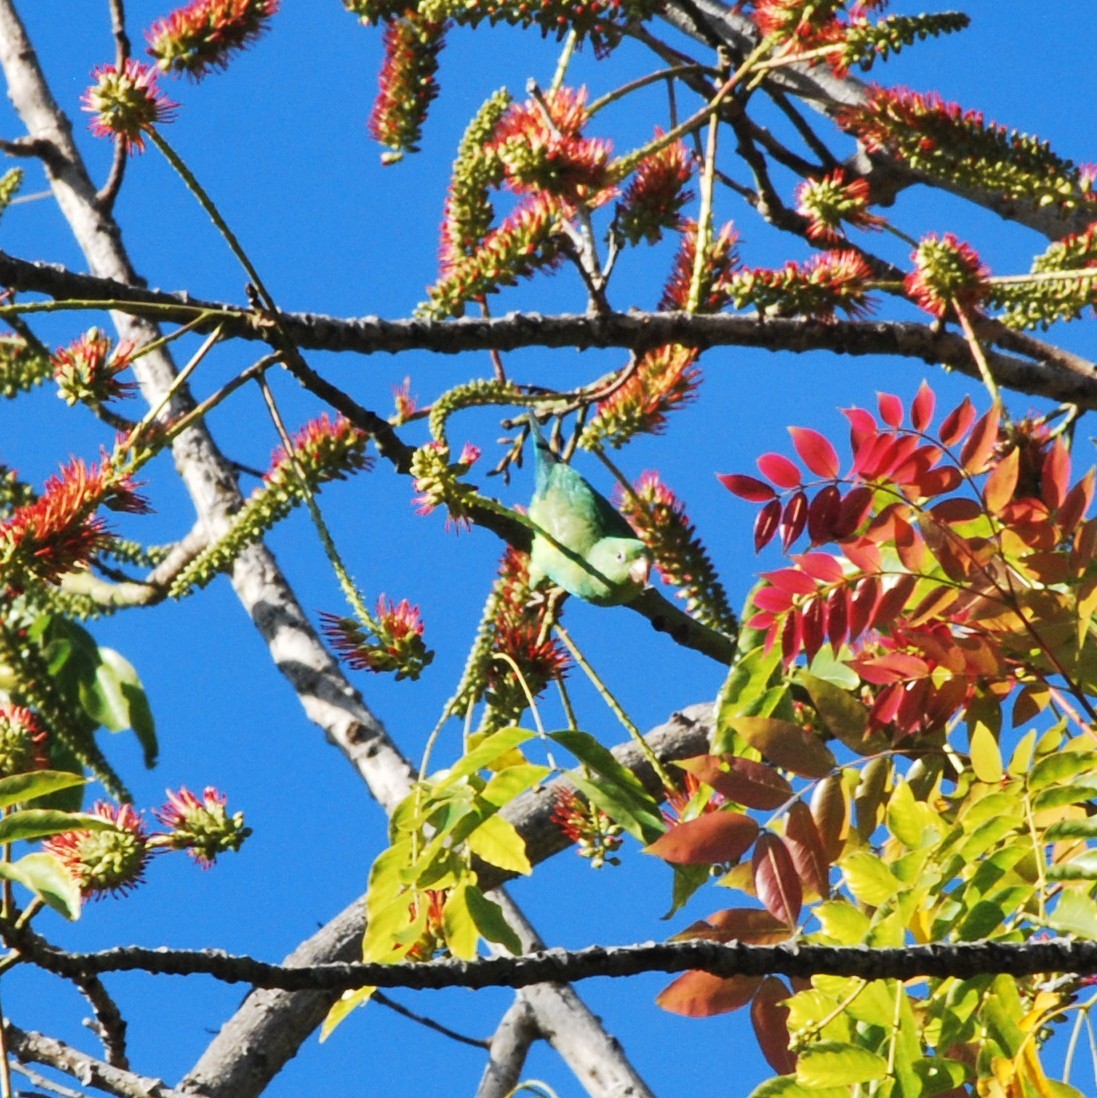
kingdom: Animalia
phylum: Chordata
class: Aves
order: Psittaciformes
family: Psittacidae
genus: Brotogeris
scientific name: Brotogeris chiriri
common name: Yellow-chevroned parakeet
